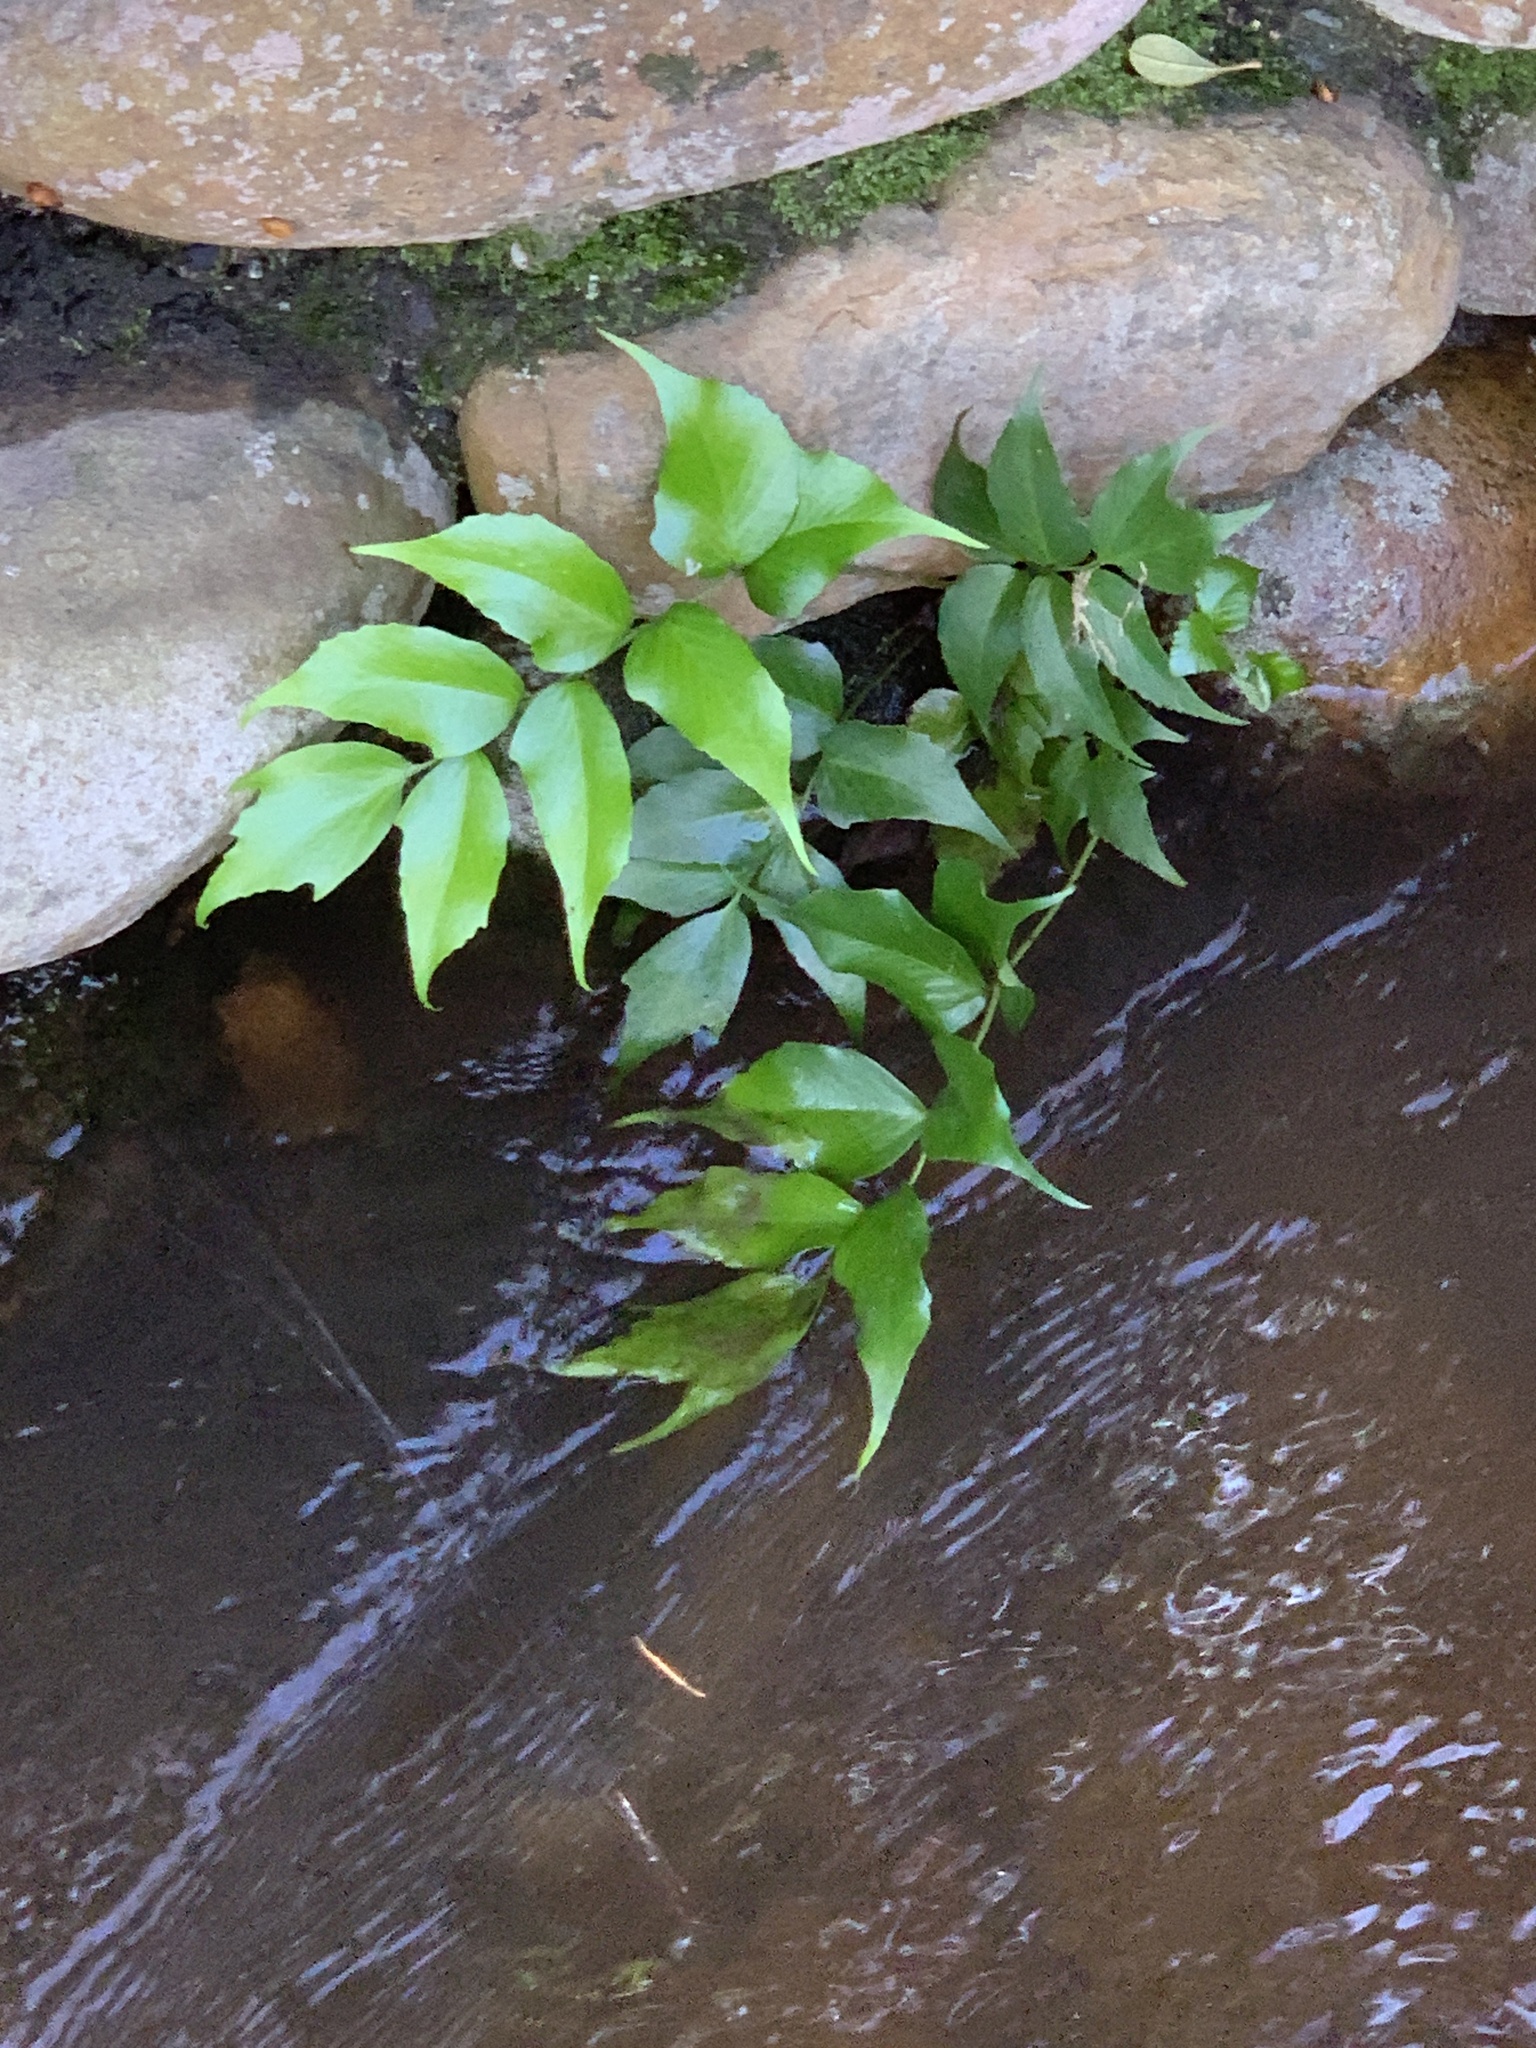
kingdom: Plantae
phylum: Tracheophyta
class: Polypodiopsida
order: Polypodiales
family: Dryopteridaceae
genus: Cyrtomium
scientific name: Cyrtomium falcatum
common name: House holly-fern
